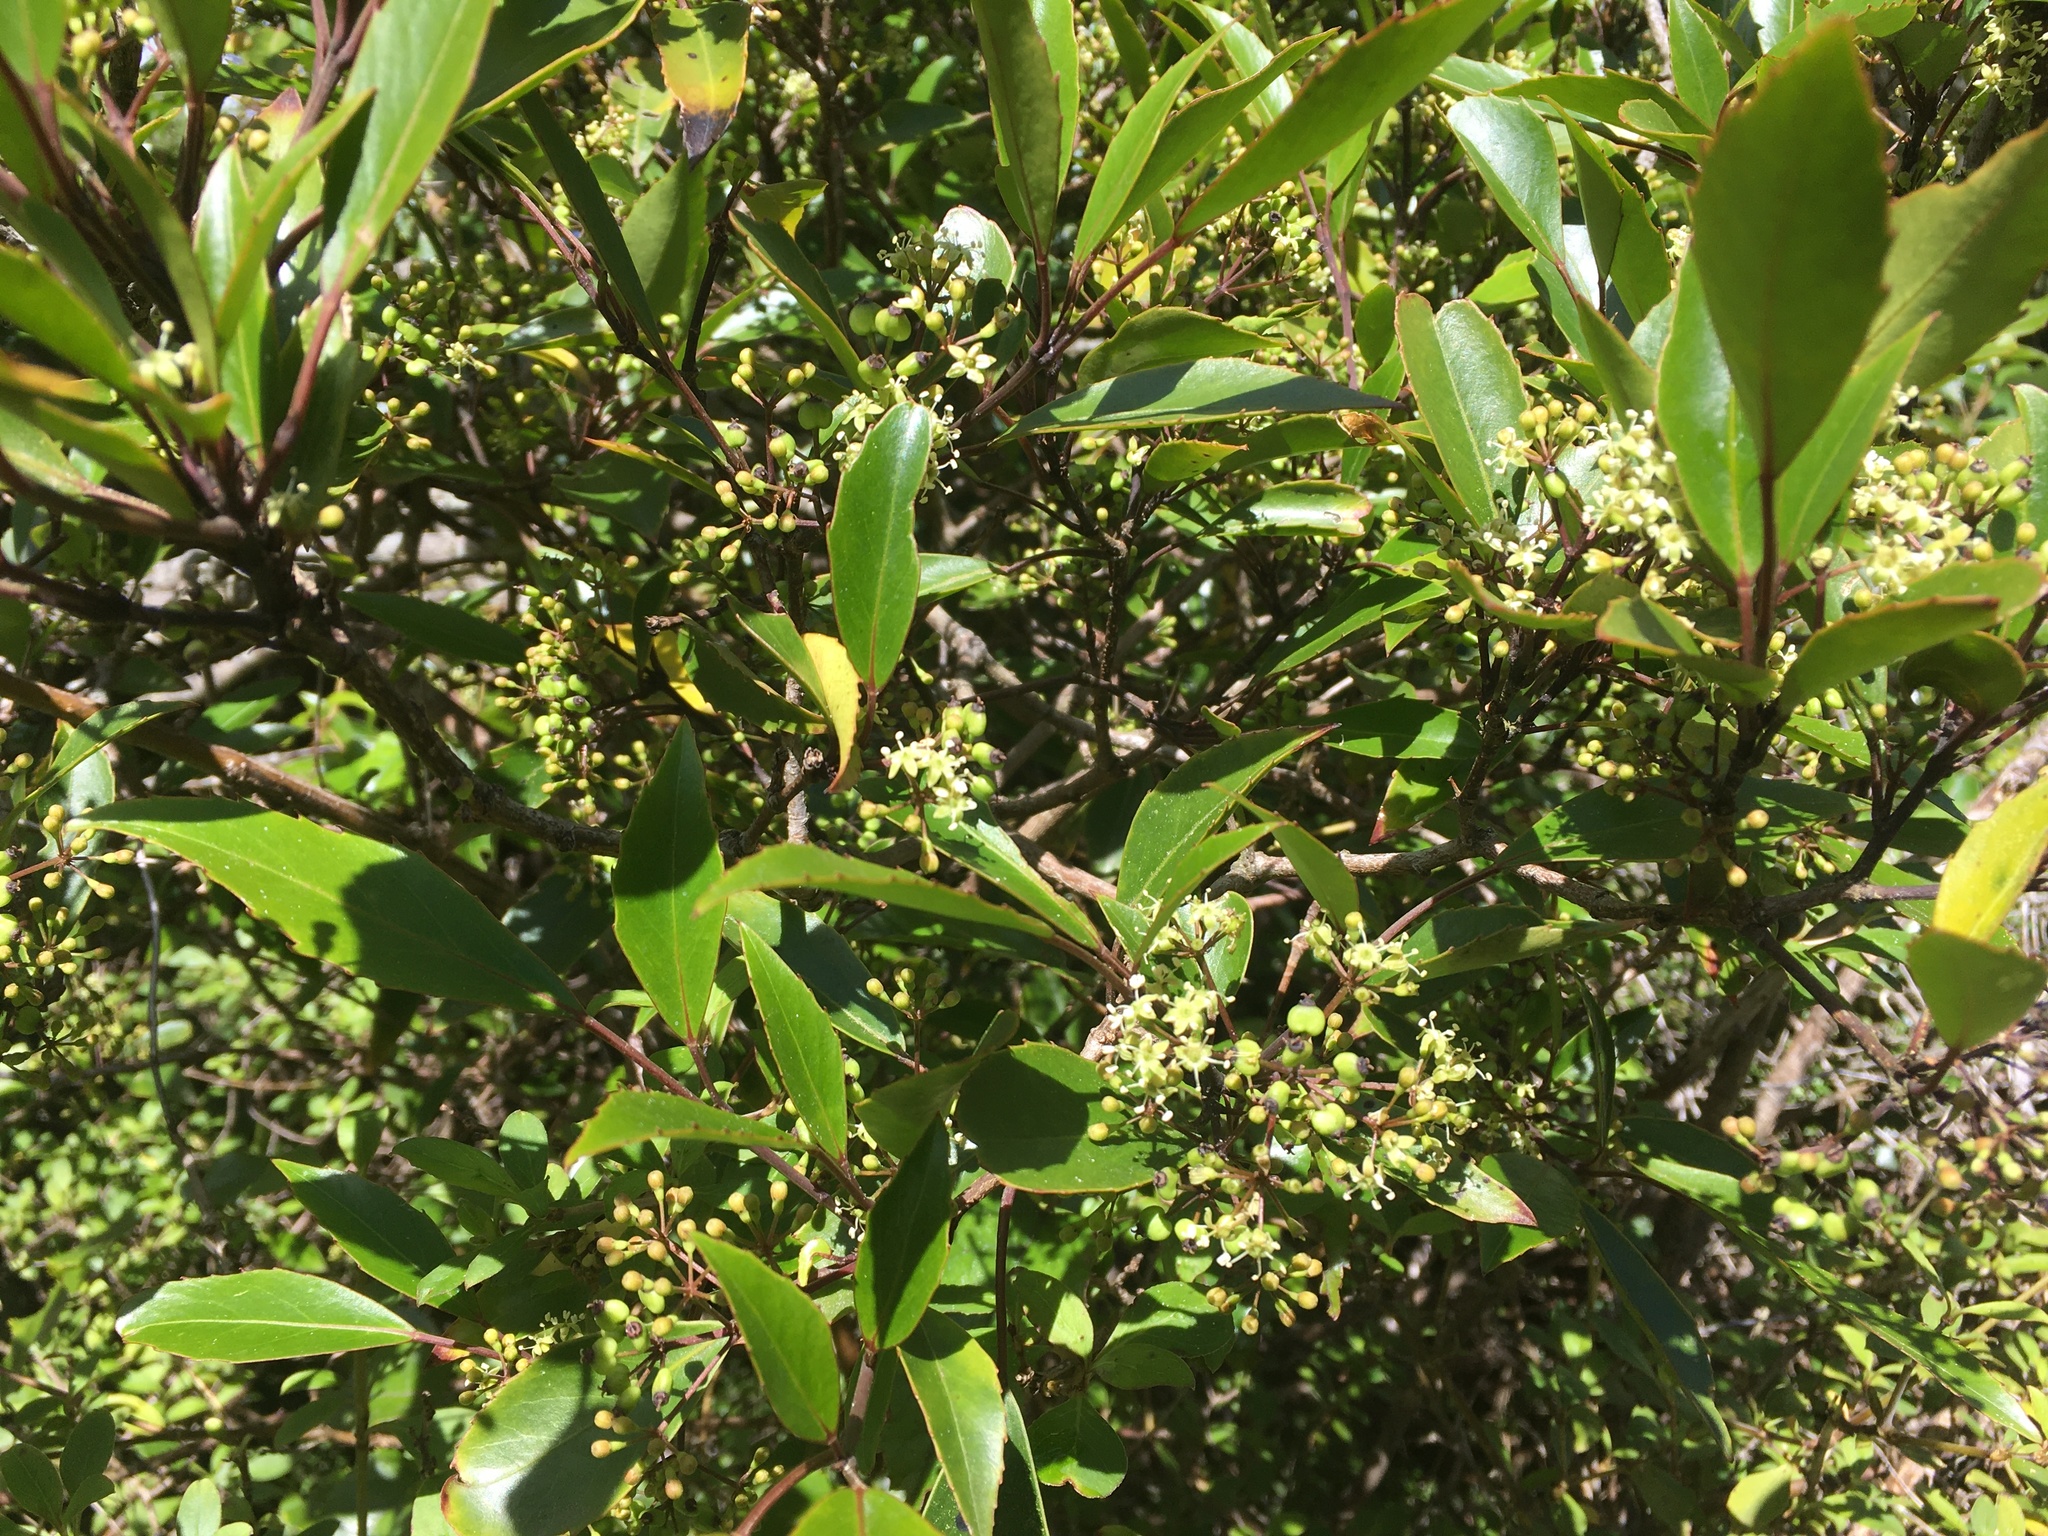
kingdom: Plantae
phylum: Tracheophyta
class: Magnoliopsida
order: Apiales
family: Araliaceae
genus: Raukaua
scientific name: Raukaua simplex
